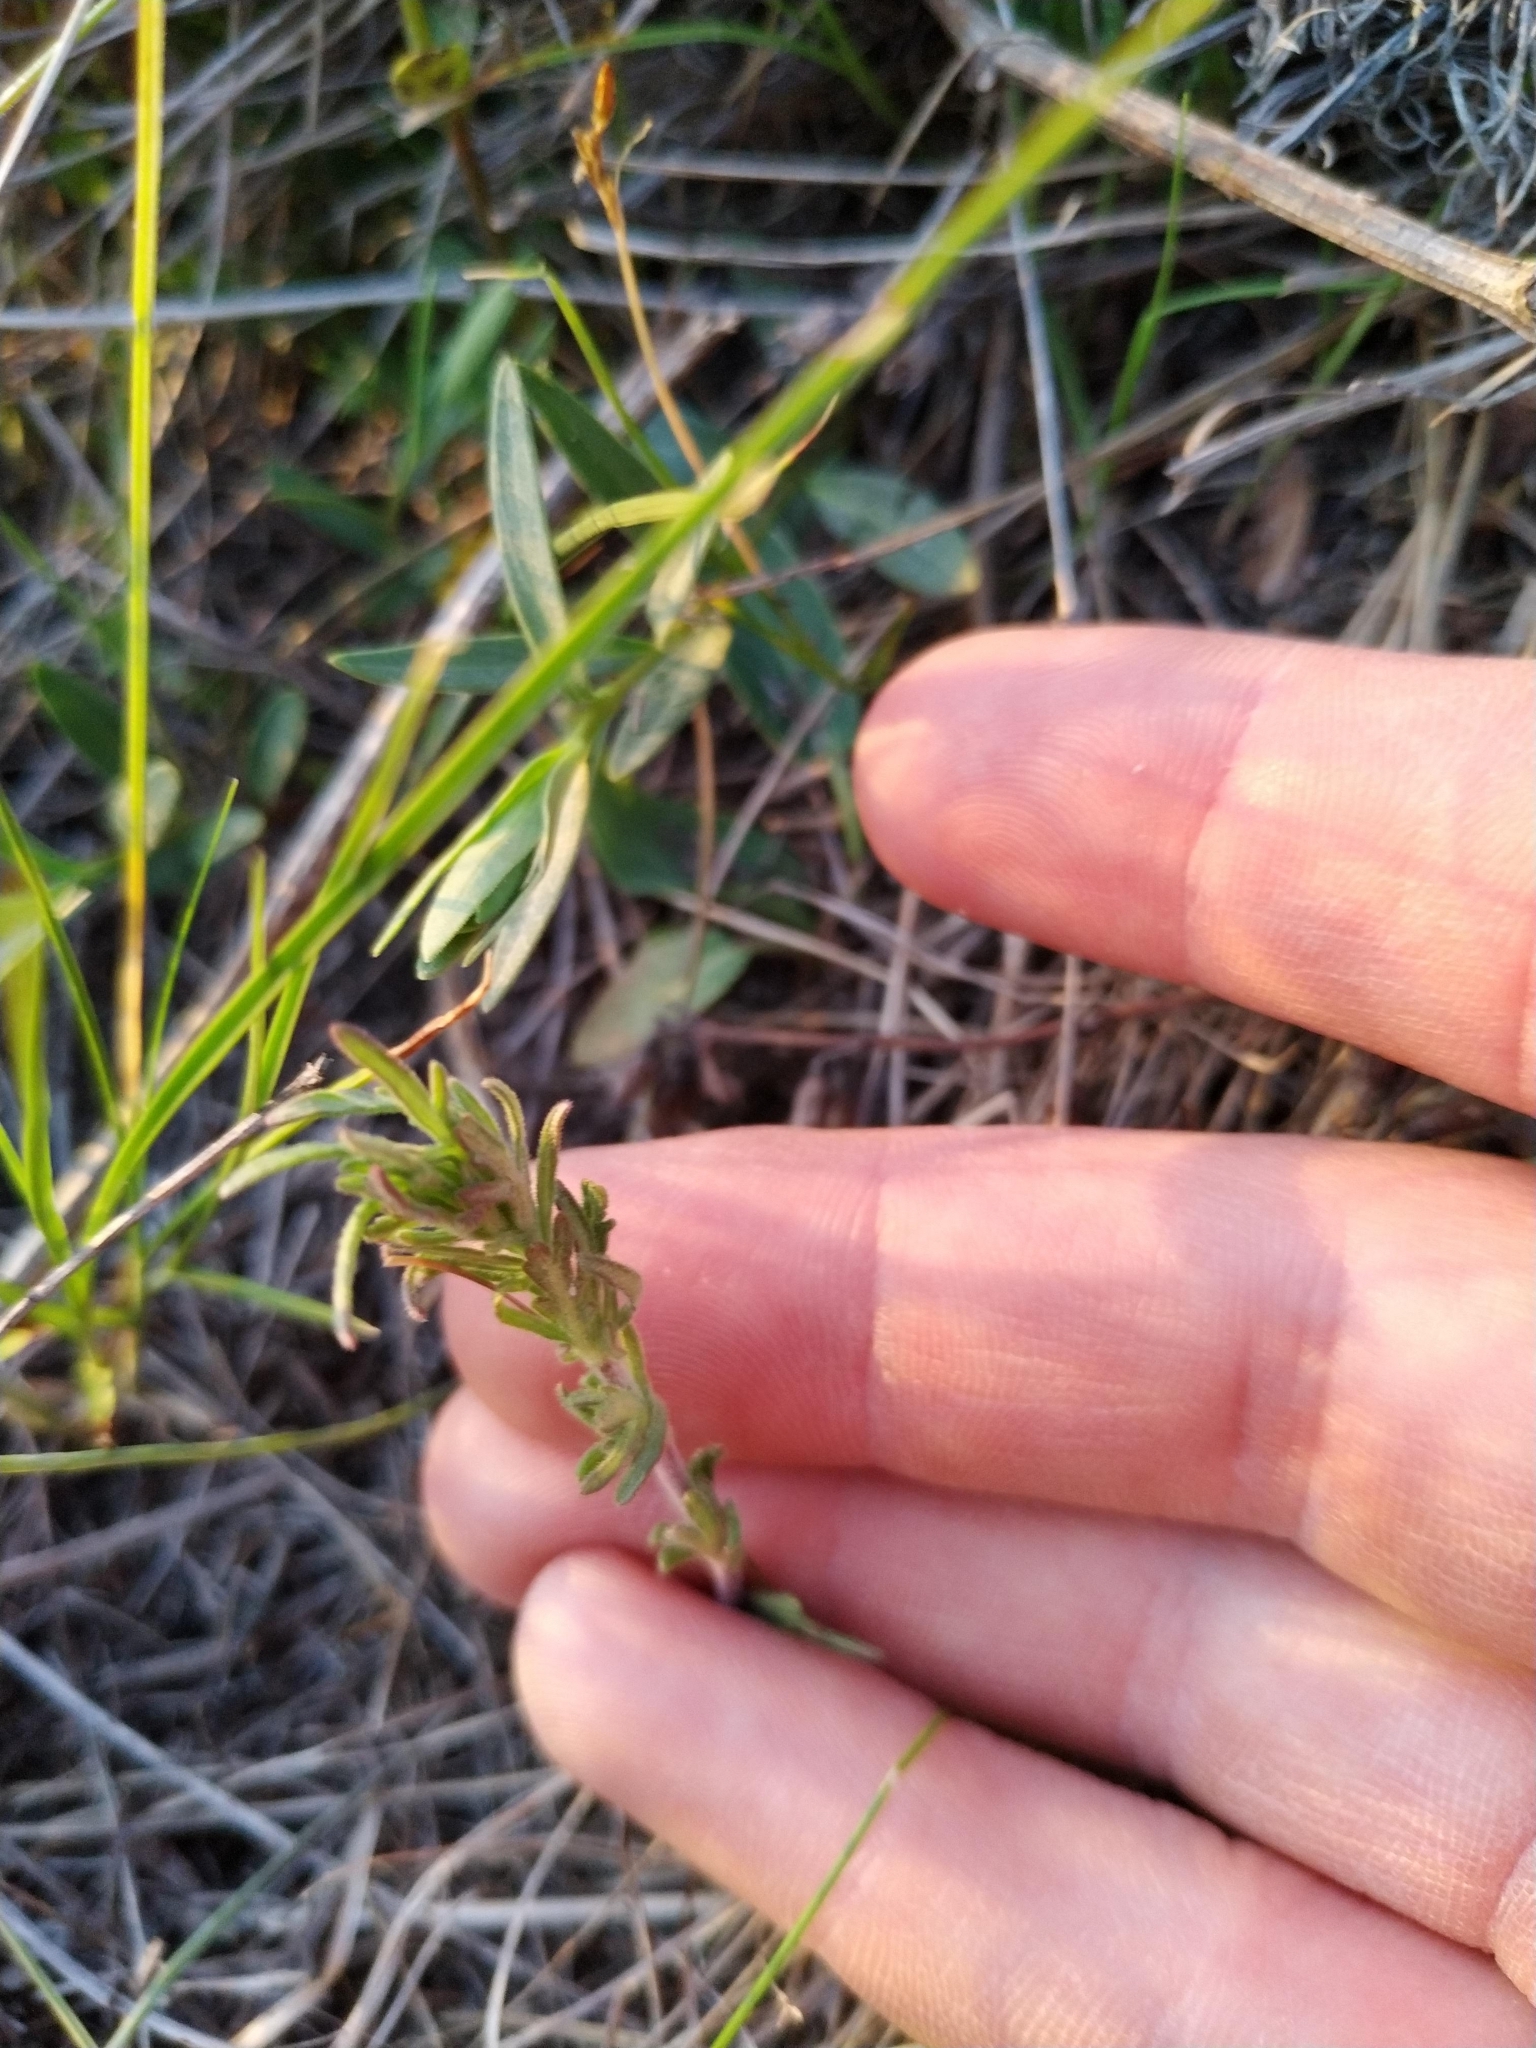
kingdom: Plantae
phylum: Tracheophyta
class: Magnoliopsida
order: Lamiales
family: Plantaginaceae
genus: Veronica
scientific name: Veronica austriaca
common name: Large speedwell
